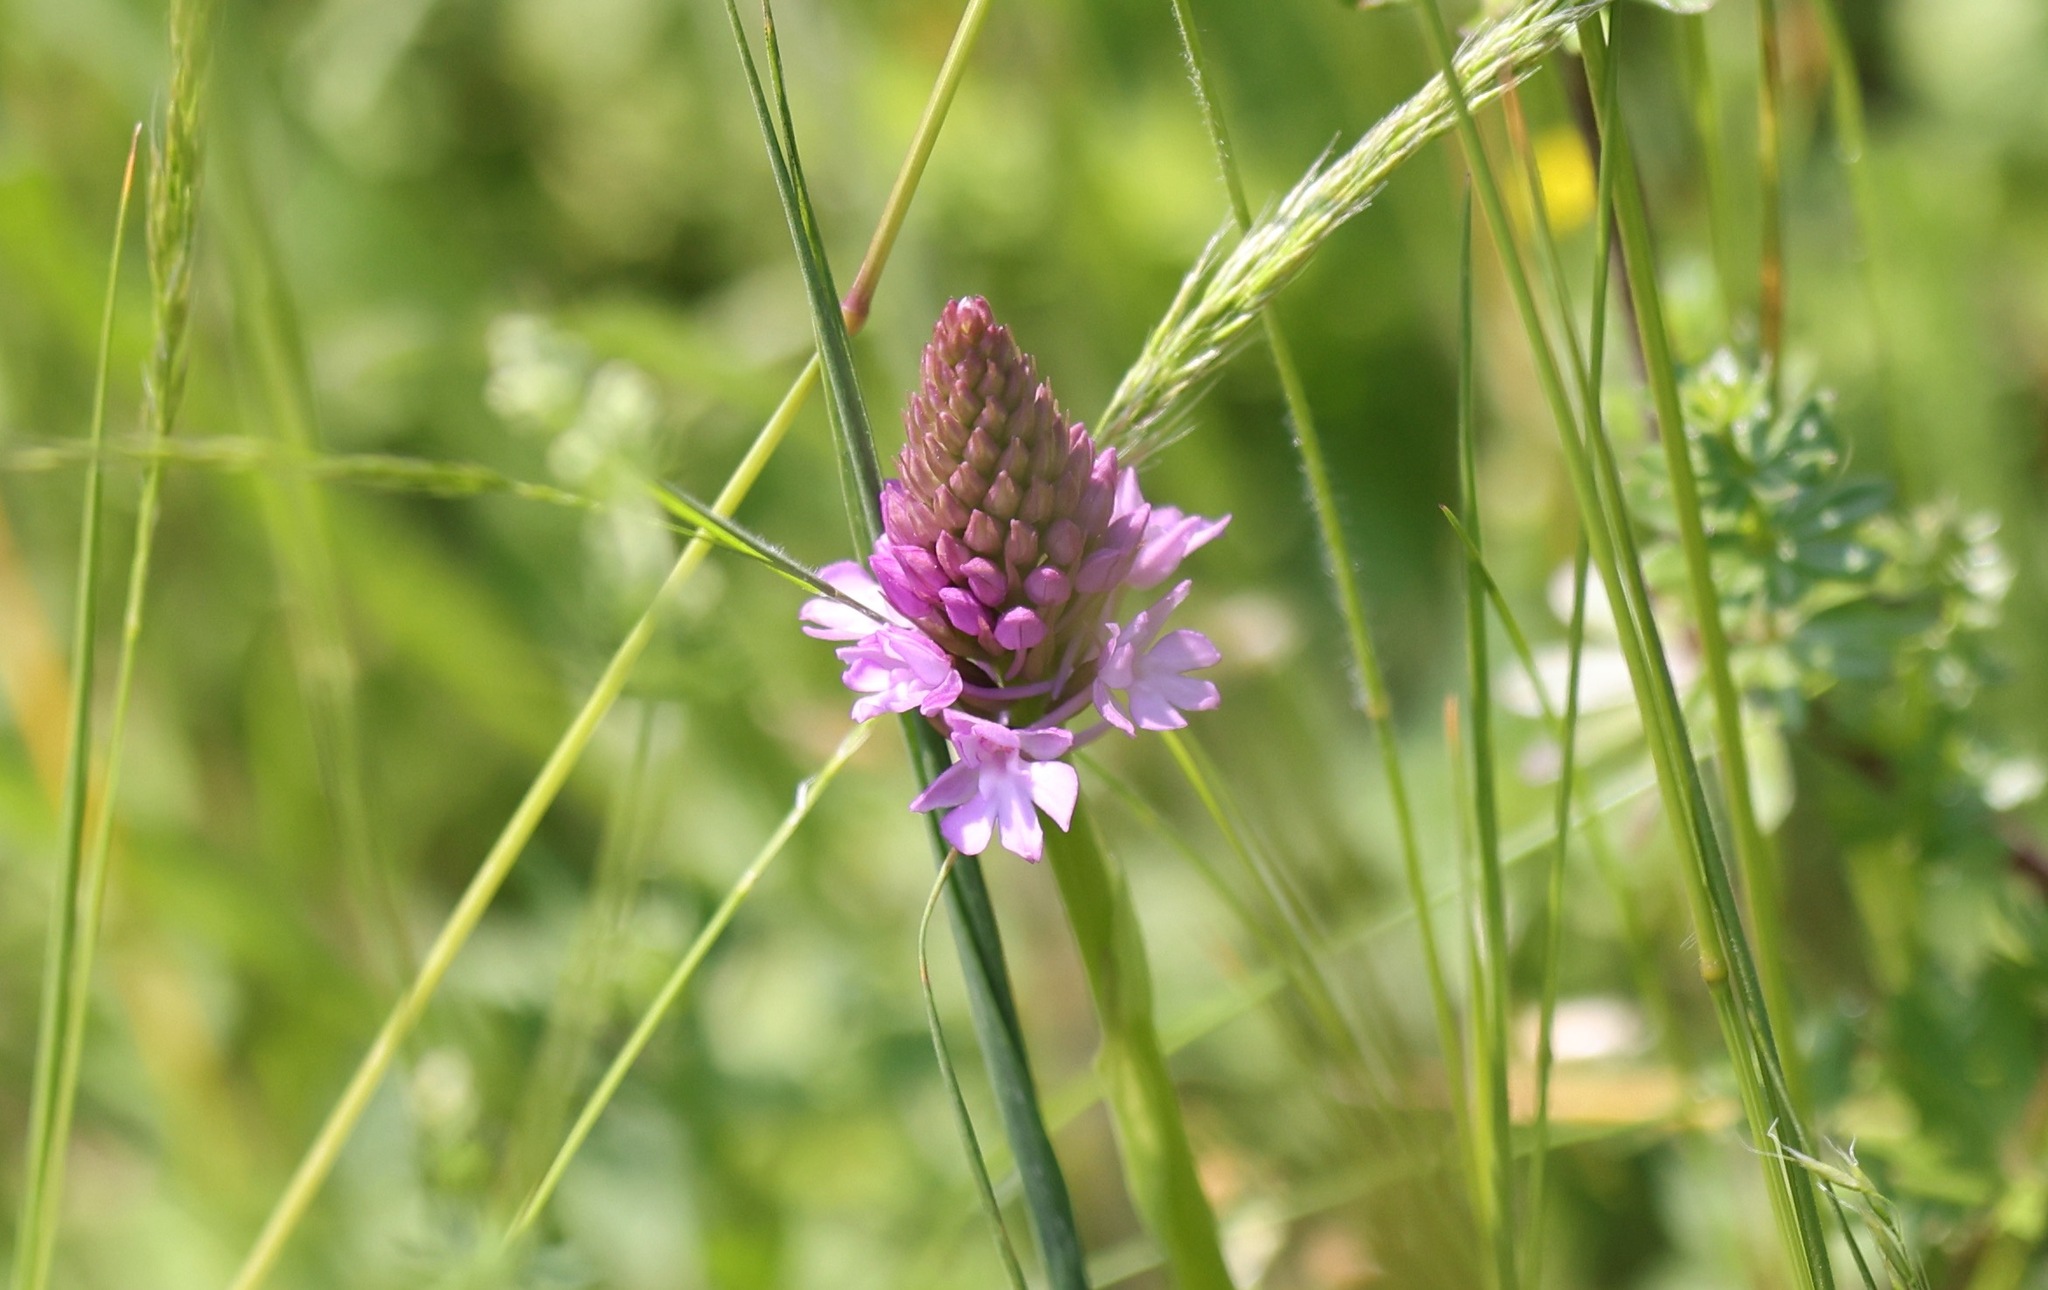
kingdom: Plantae
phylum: Tracheophyta
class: Liliopsida
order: Asparagales
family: Orchidaceae
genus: Anacamptis
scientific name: Anacamptis pyramidalis
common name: Pyramidal orchid
